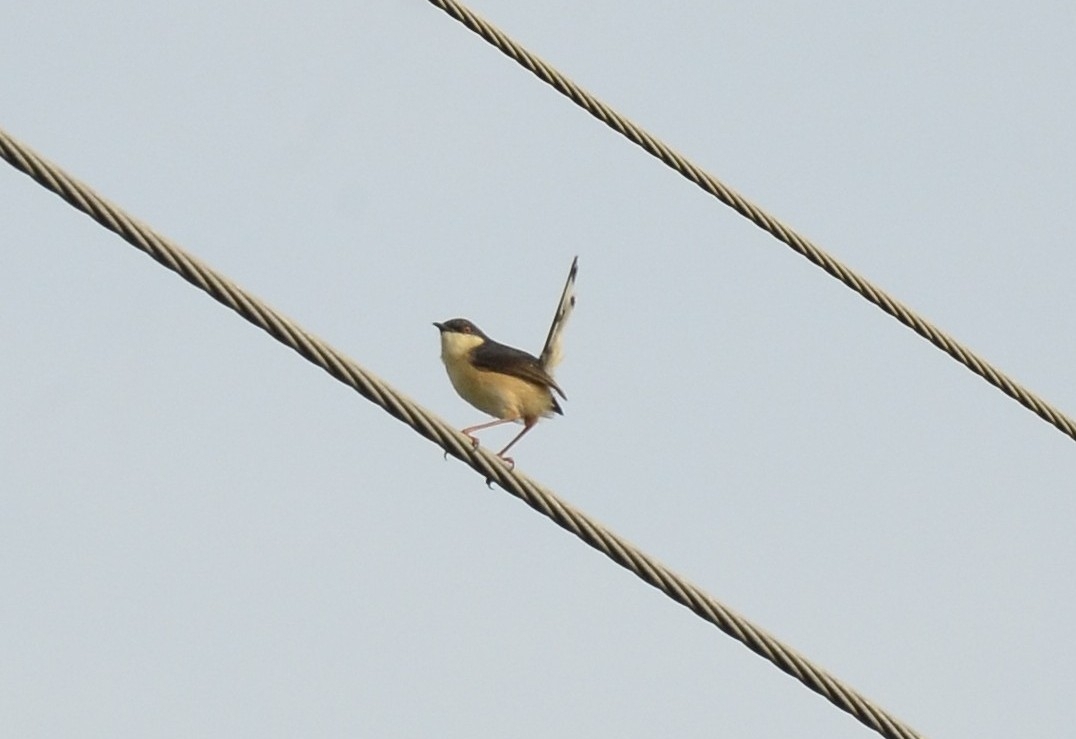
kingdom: Animalia
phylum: Chordata
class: Aves
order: Passeriformes
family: Cisticolidae
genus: Prinia
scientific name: Prinia socialis
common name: Ashy prinia
